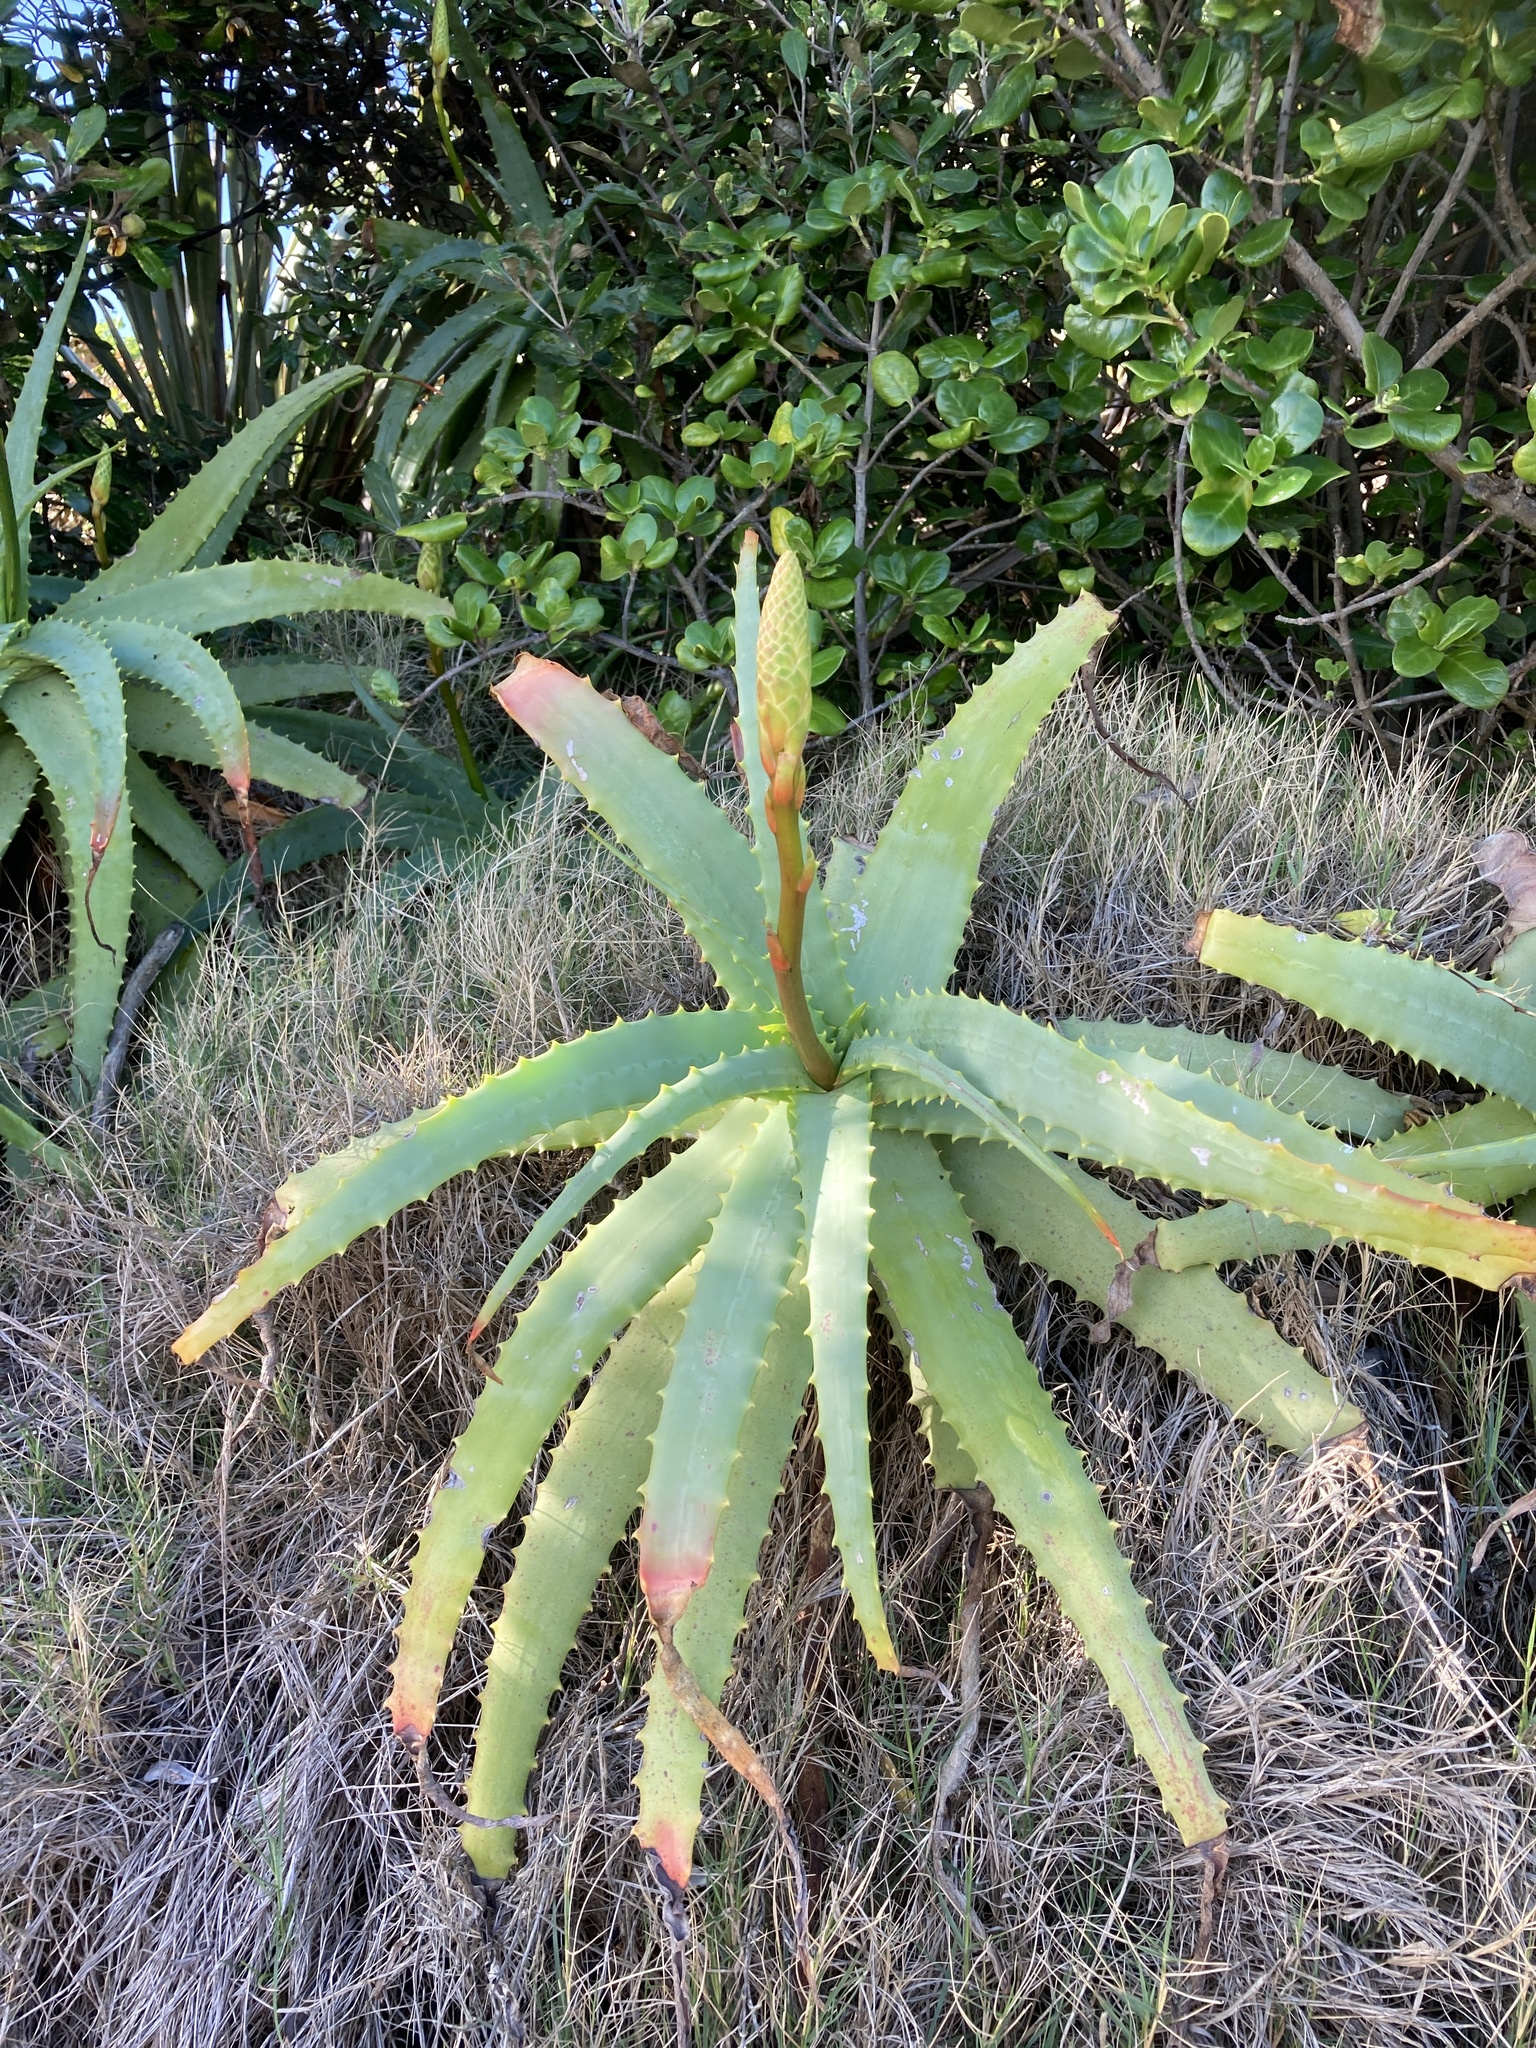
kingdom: Plantae
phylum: Tracheophyta
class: Liliopsida
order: Asparagales
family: Asphodelaceae
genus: Aloe
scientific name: Aloe arborescens
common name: Candelabra aloe
